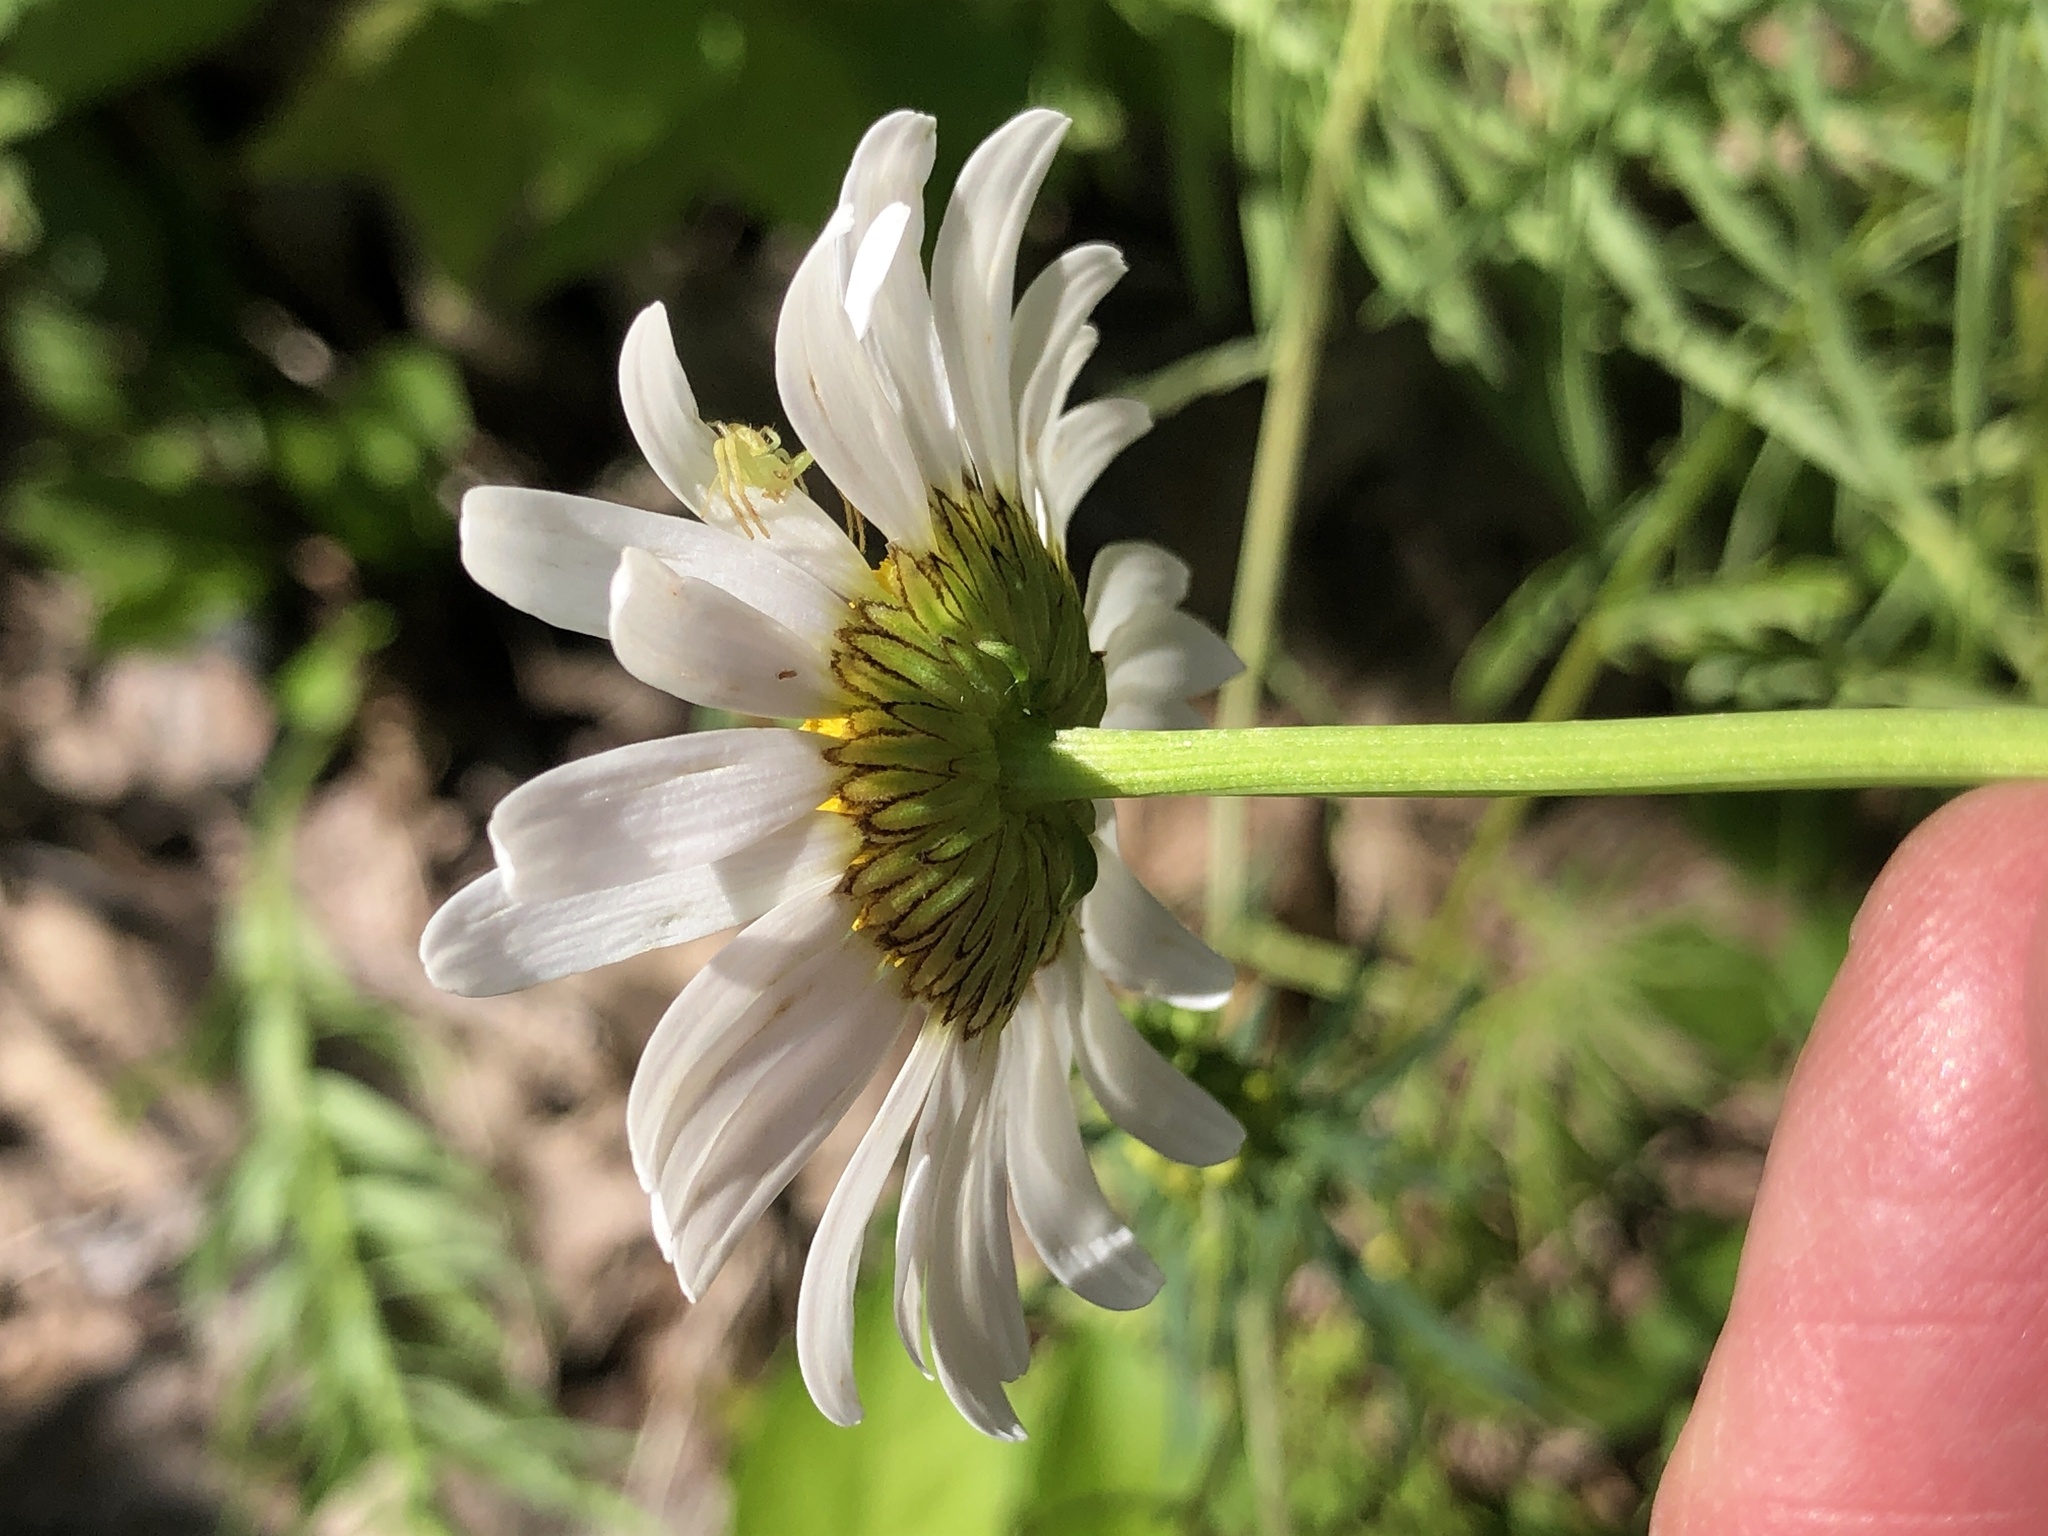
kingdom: Plantae
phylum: Tracheophyta
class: Magnoliopsida
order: Asterales
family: Asteraceae
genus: Leucanthemum
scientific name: Leucanthemum vulgare
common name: Oxeye daisy
